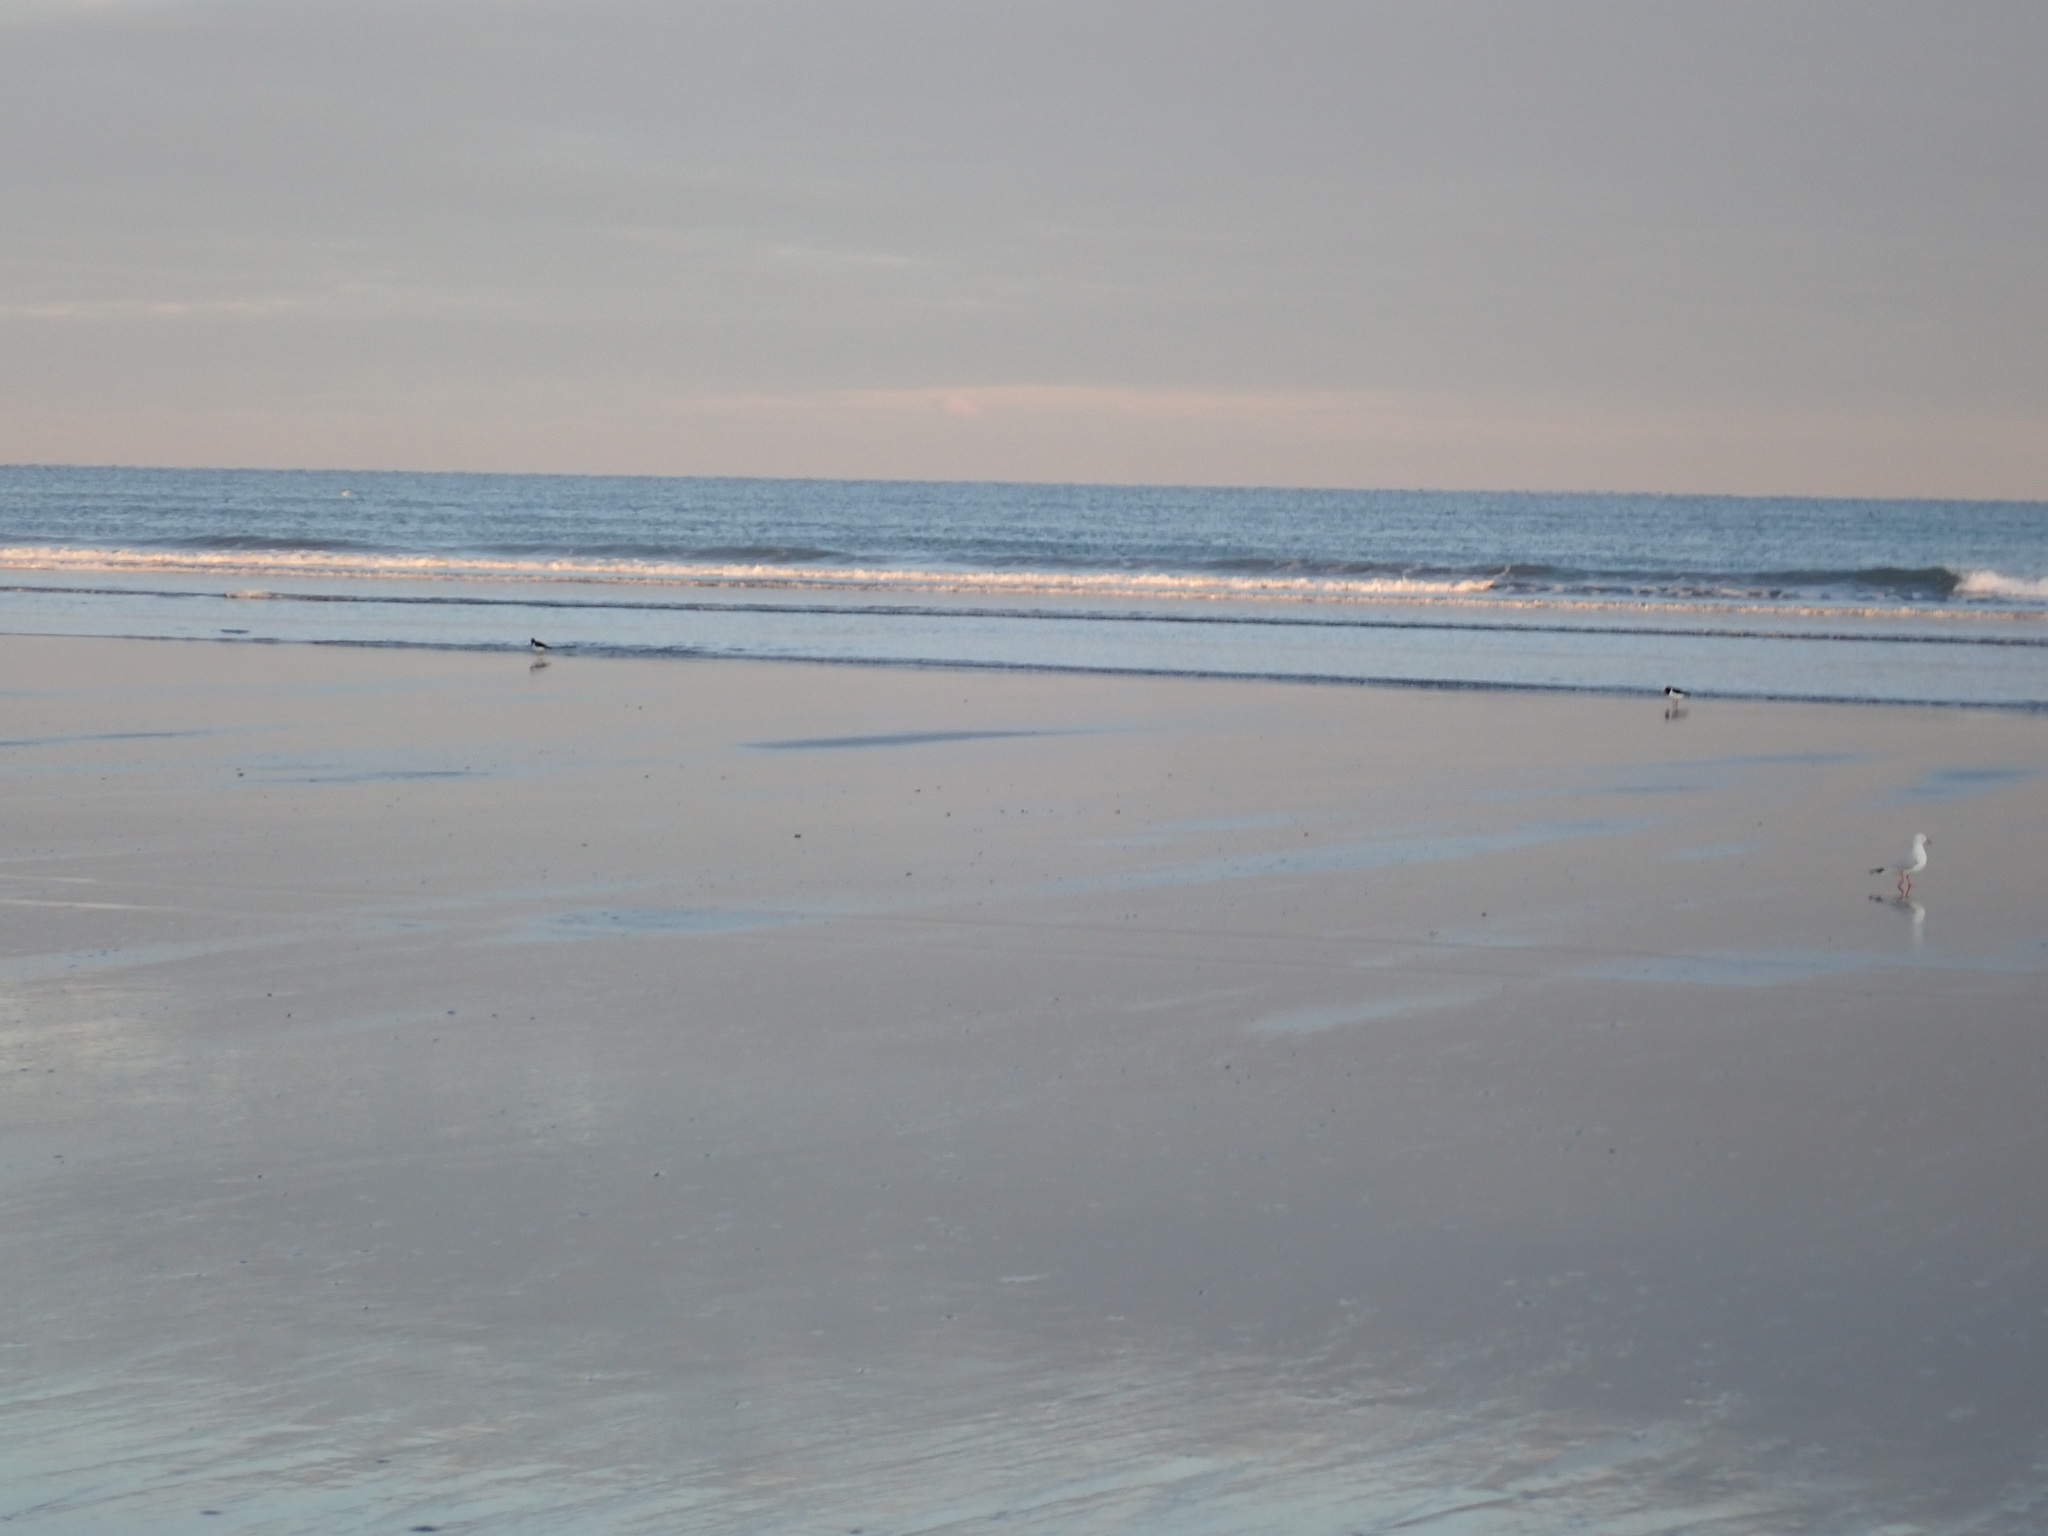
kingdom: Animalia
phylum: Chordata
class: Aves
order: Charadriiformes
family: Haematopodidae
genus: Haematopus
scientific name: Haematopus finschi
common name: South island oystercatcher
